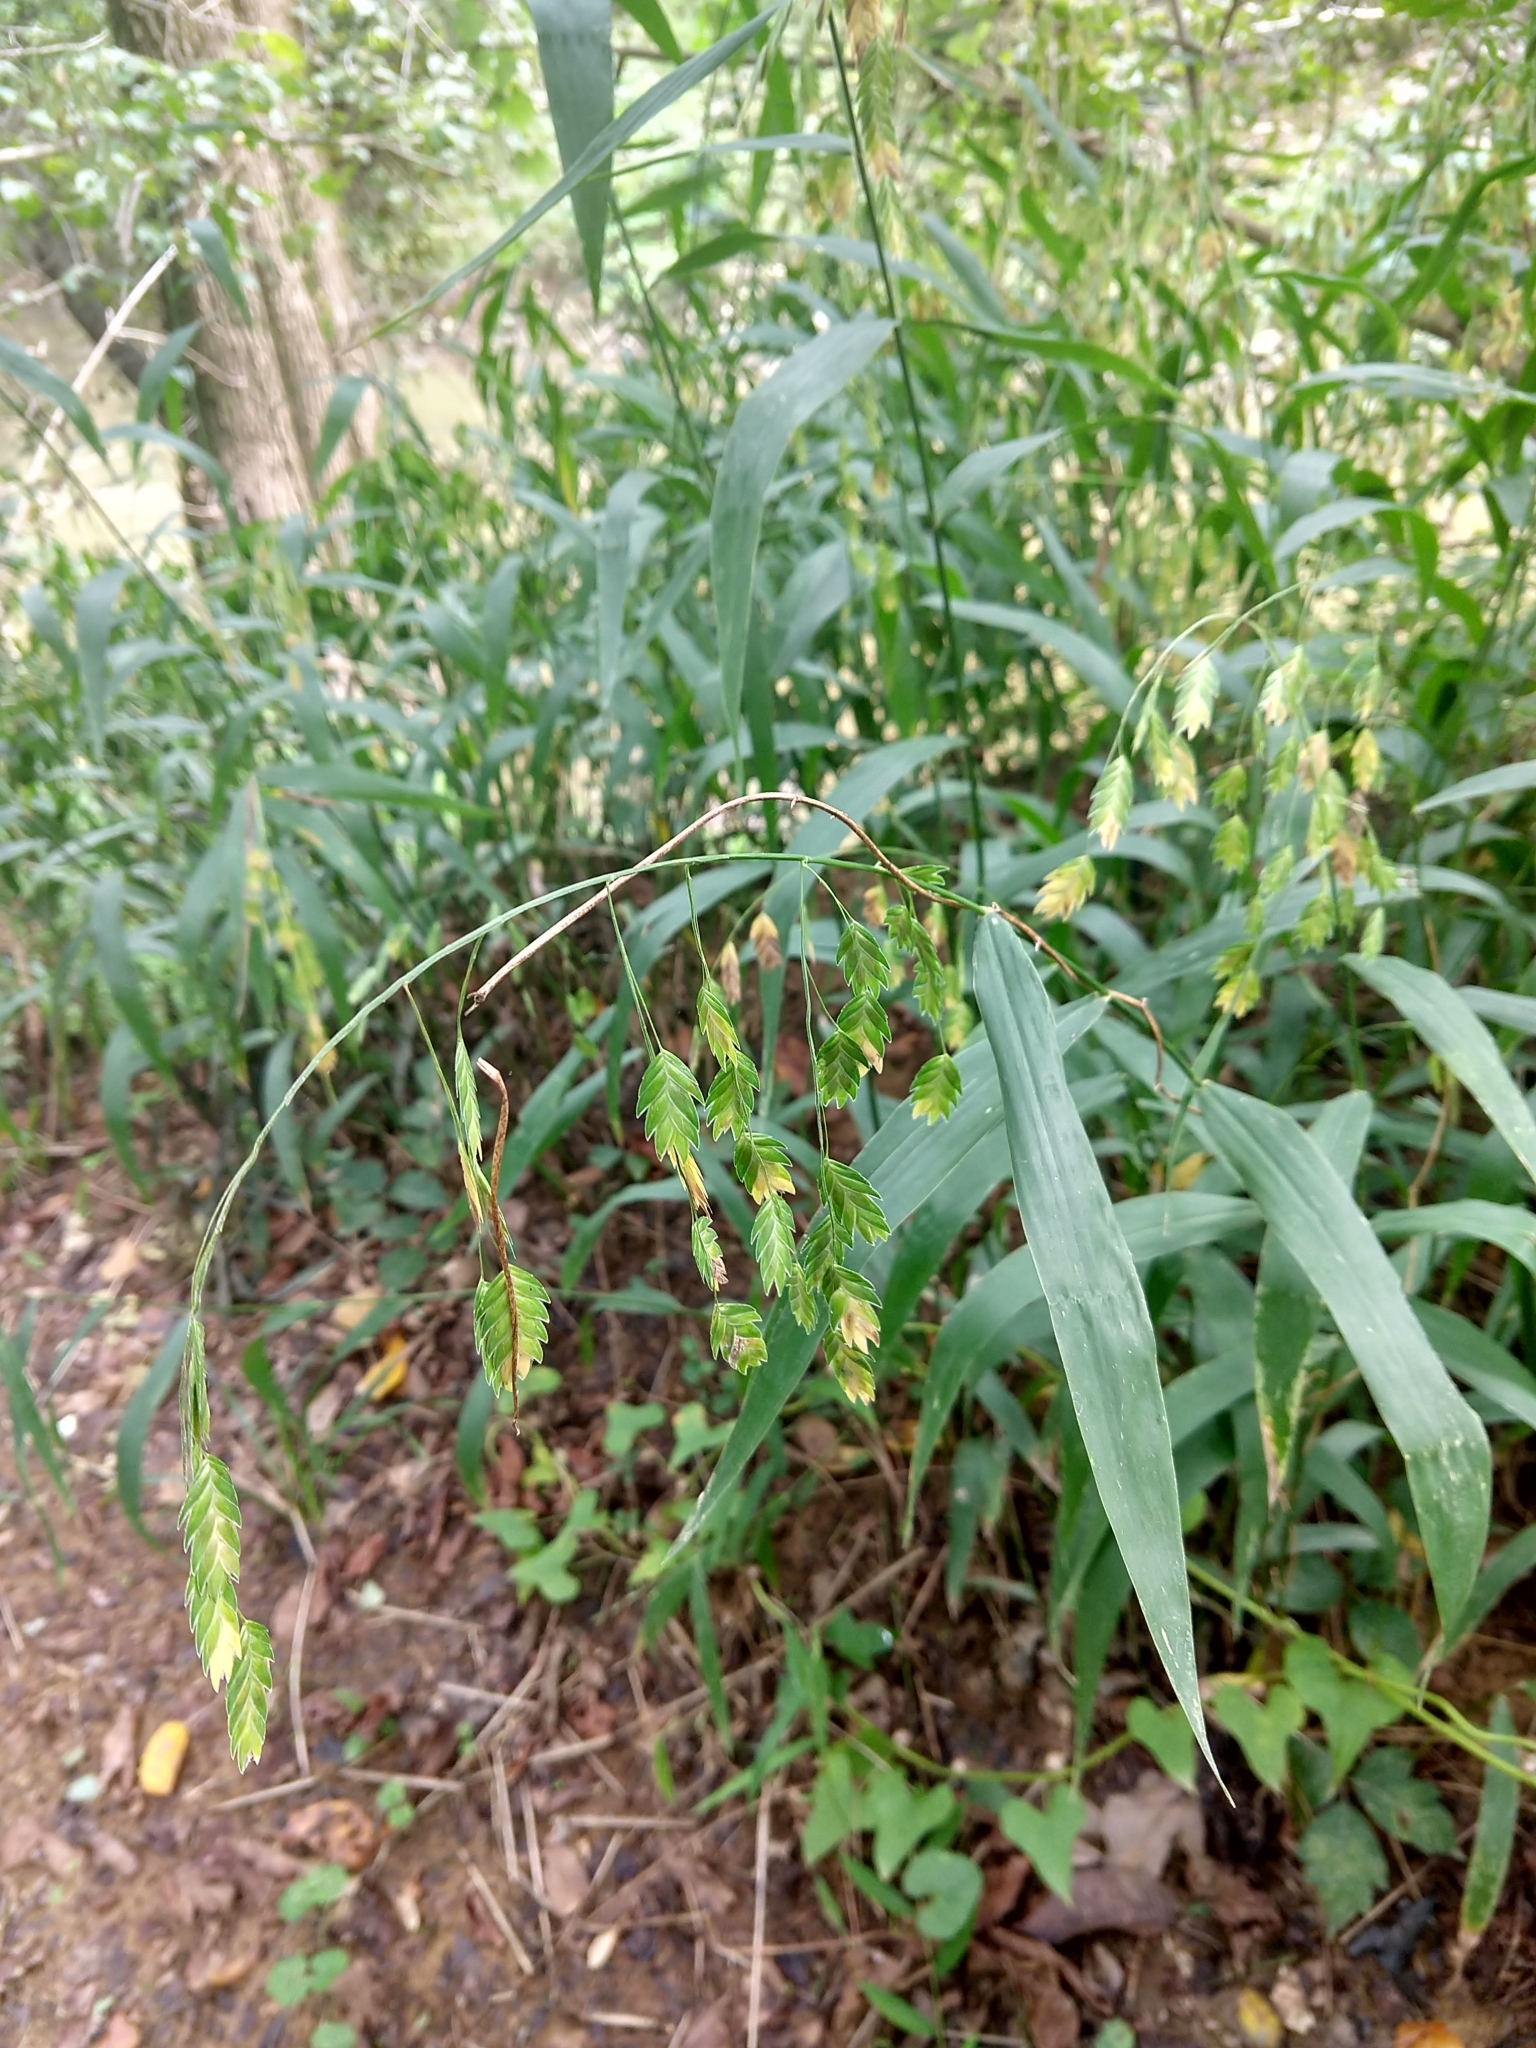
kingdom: Plantae
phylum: Tracheophyta
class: Liliopsida
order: Poales
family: Poaceae
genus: Chasmanthium
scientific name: Chasmanthium latifolium
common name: Broad-leaved chasmanthium
